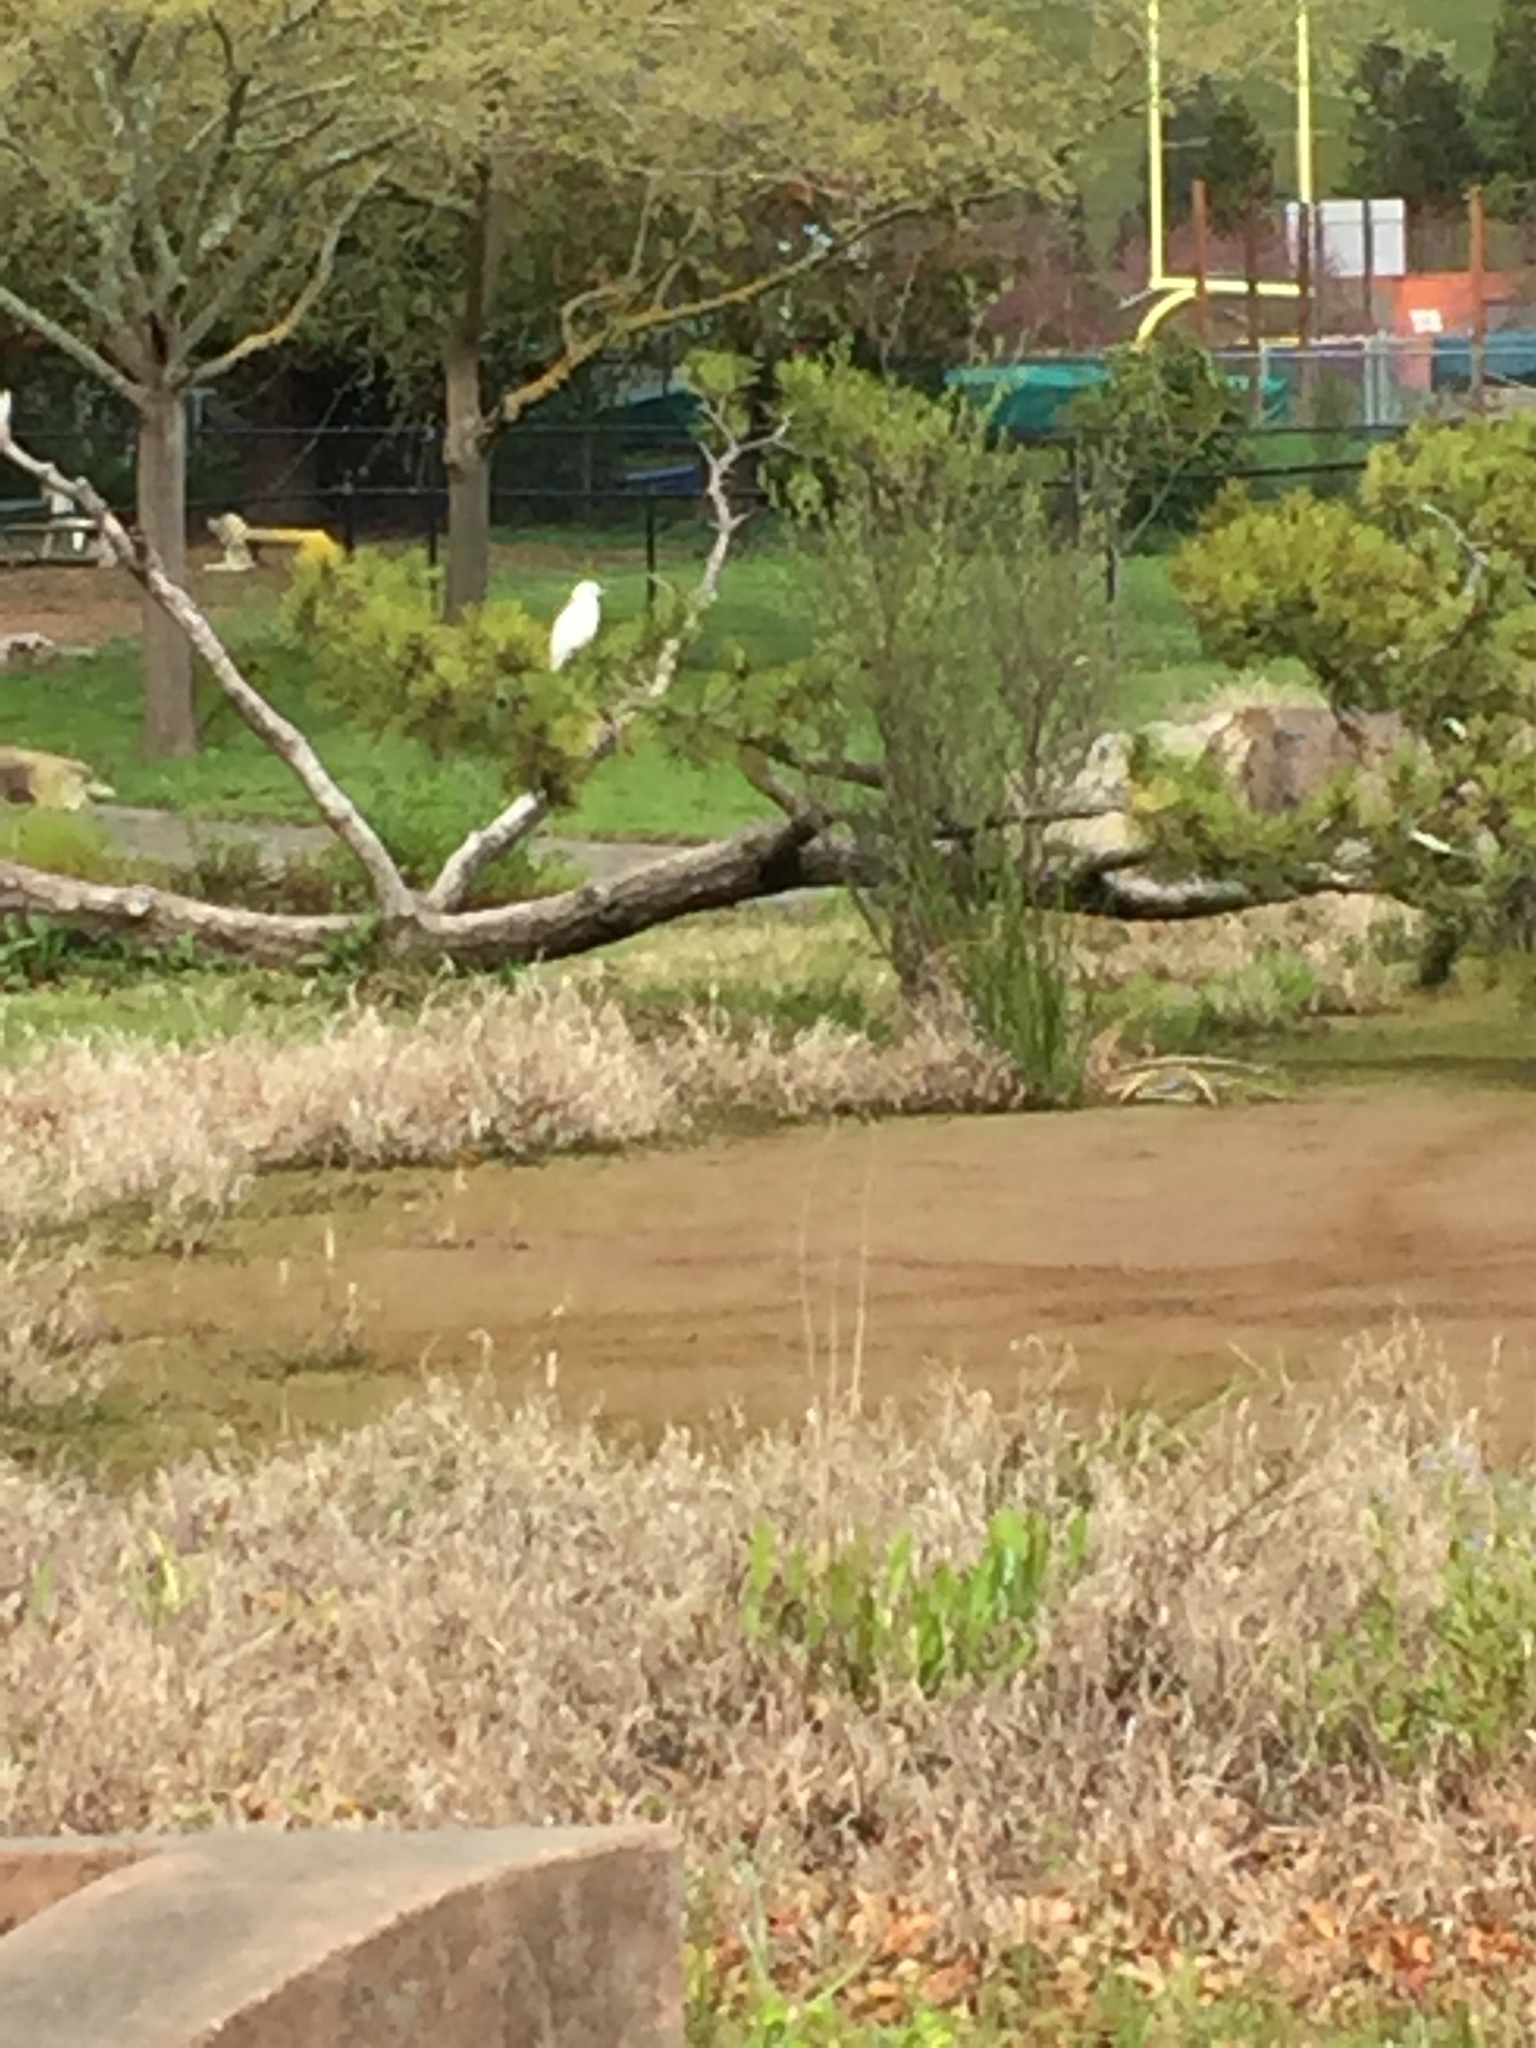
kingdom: Animalia
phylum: Chordata
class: Aves
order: Pelecaniformes
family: Ardeidae
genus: Egretta
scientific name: Egretta thula
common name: Snowy egret
